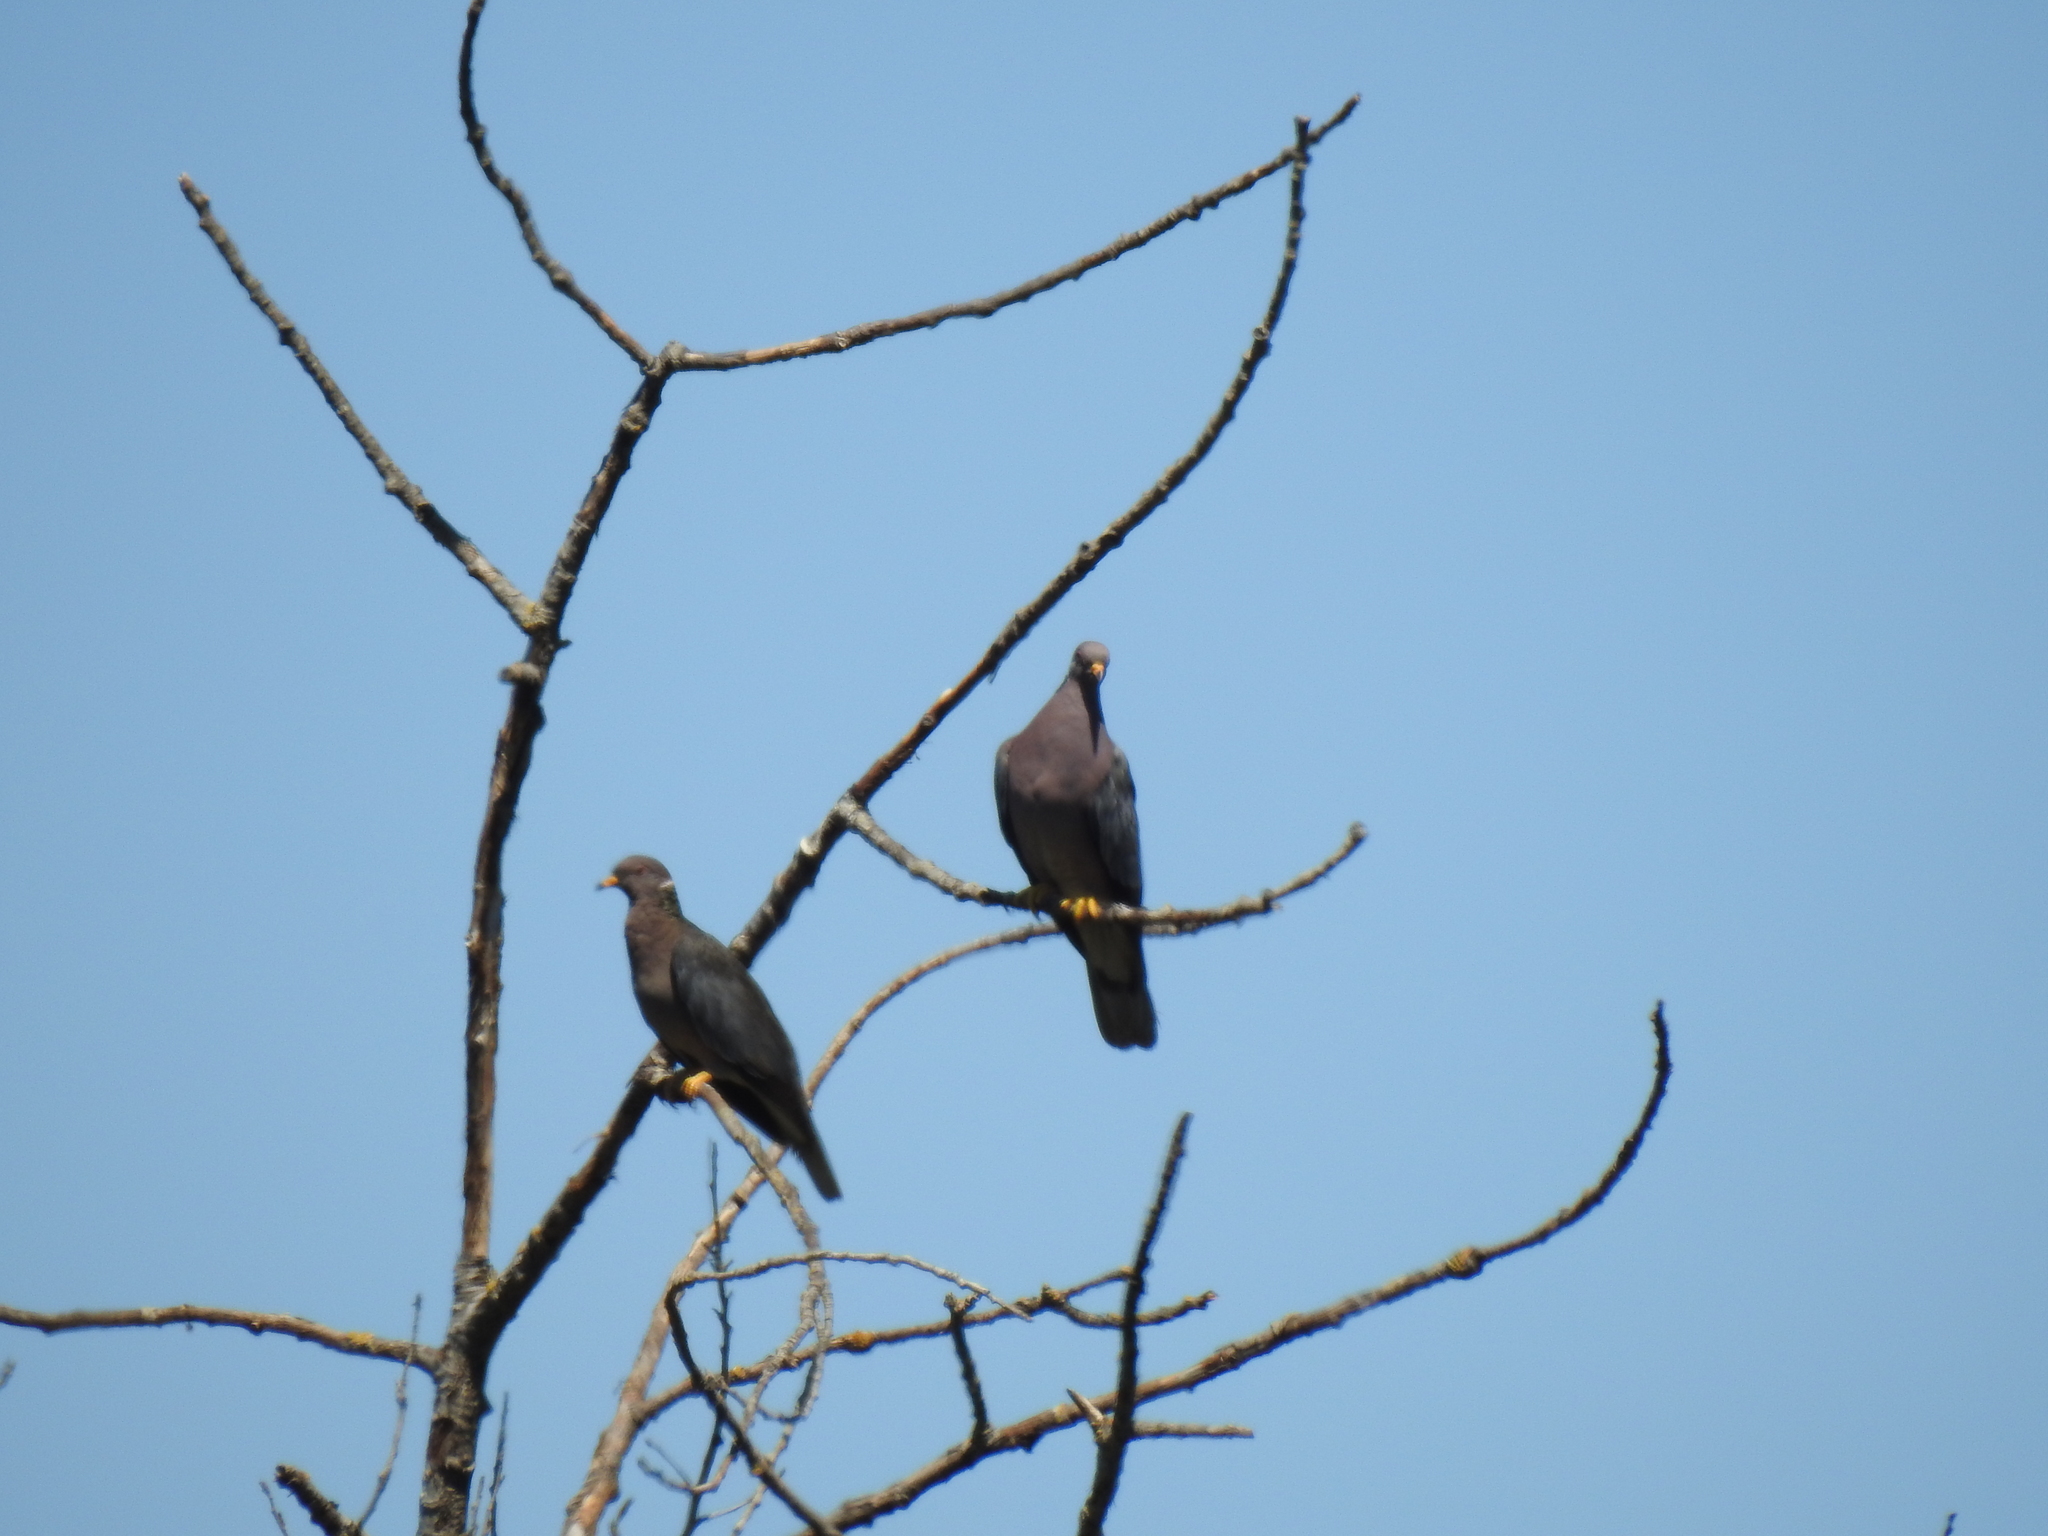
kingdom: Animalia
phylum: Chordata
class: Aves
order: Columbiformes
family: Columbidae
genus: Patagioenas
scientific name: Patagioenas fasciata
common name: Band-tailed pigeon
